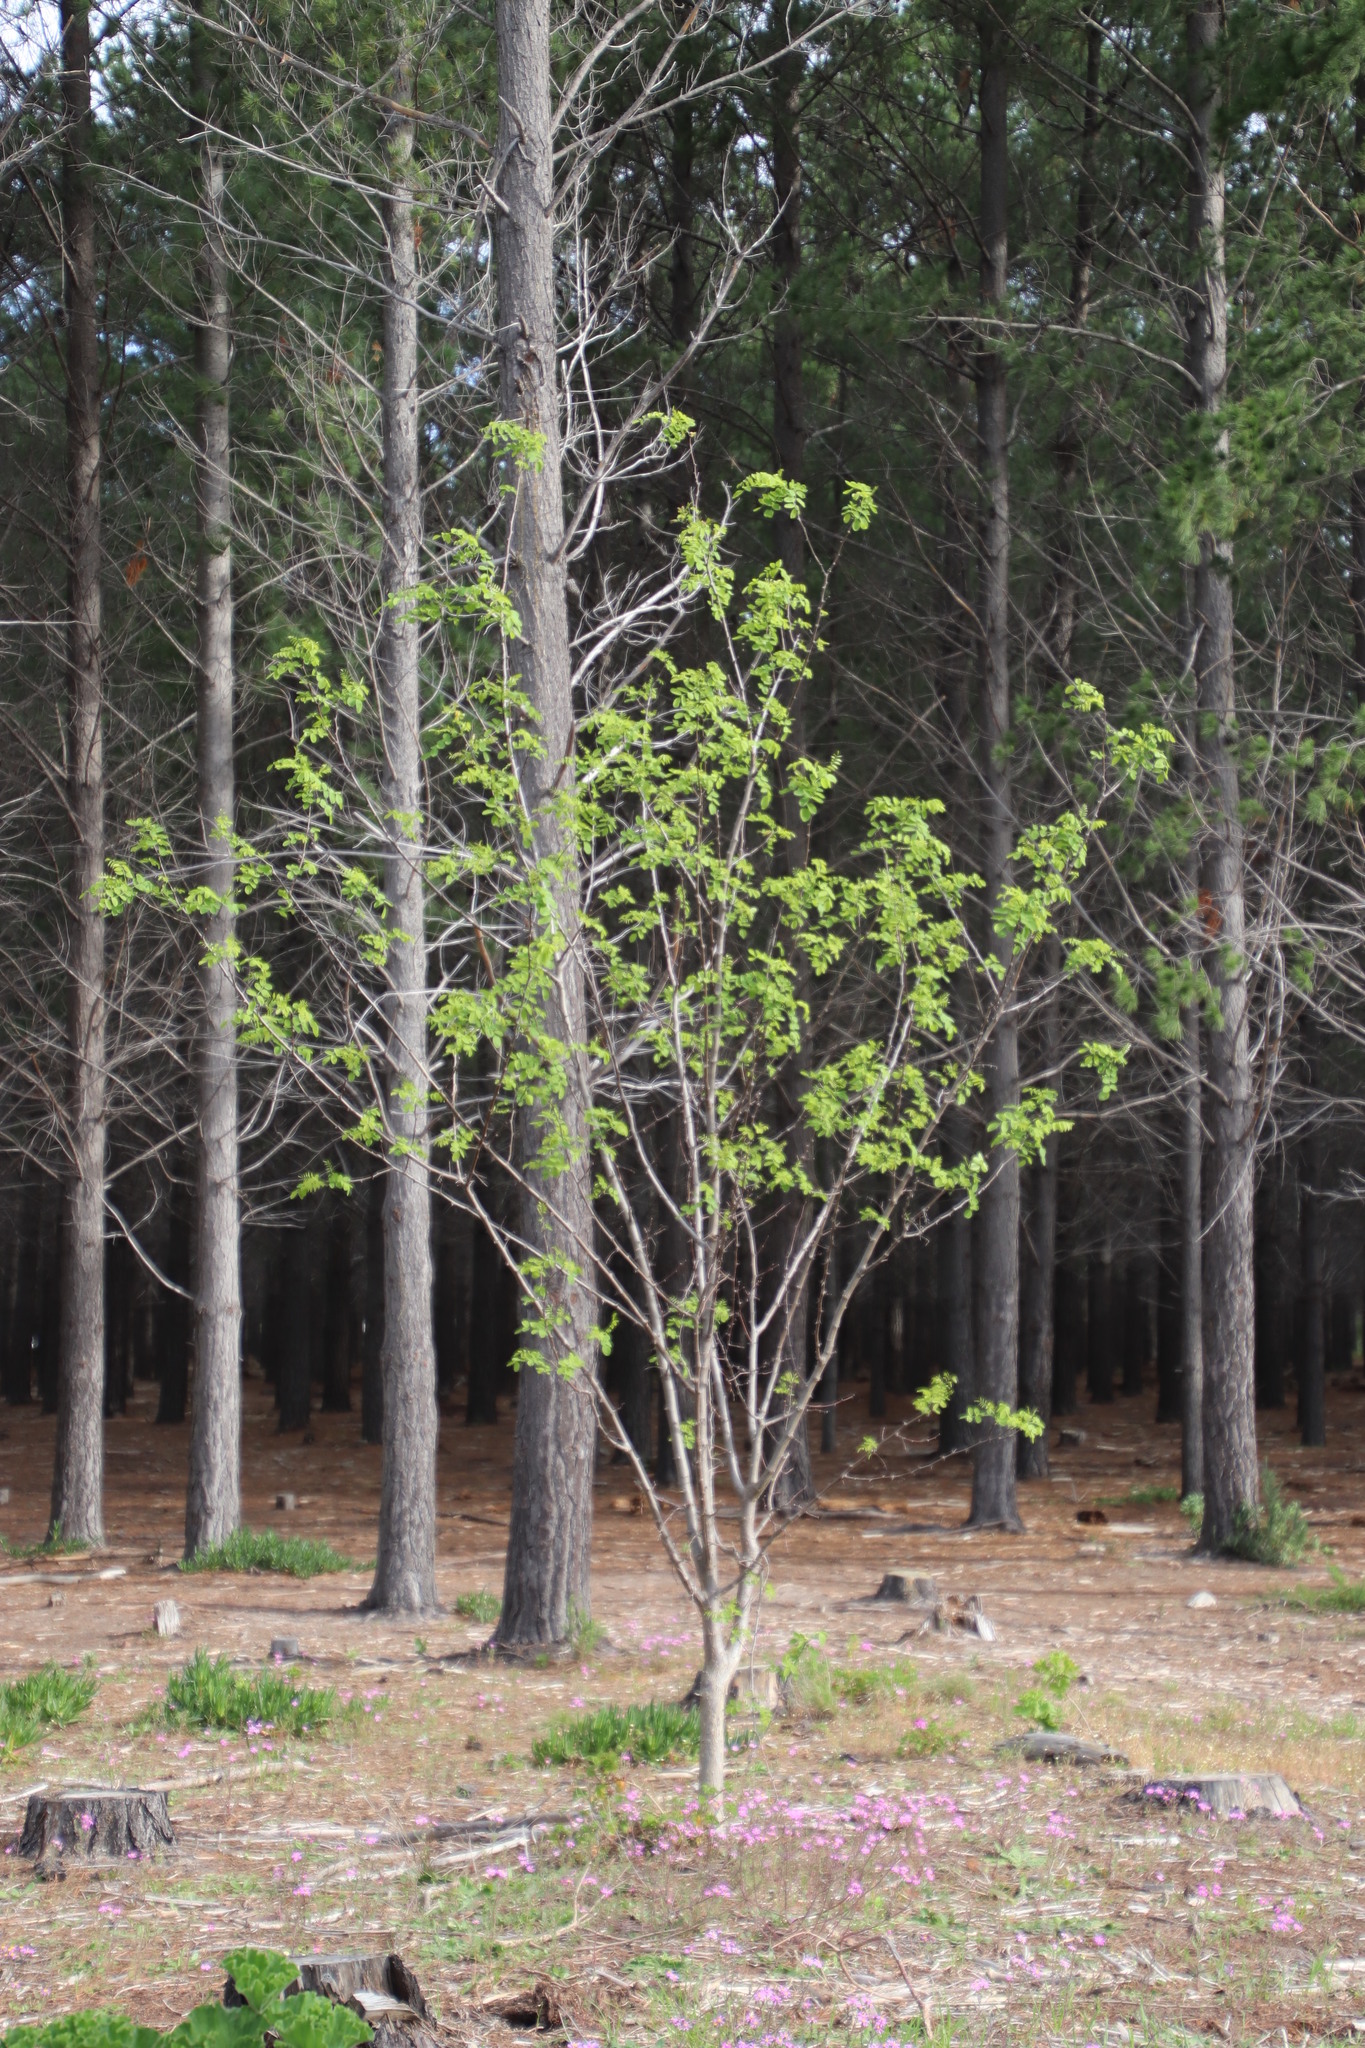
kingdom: Plantae
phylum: Tracheophyta
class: Magnoliopsida
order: Fabales
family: Fabaceae
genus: Robinia
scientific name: Robinia pseudoacacia
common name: Black locust
